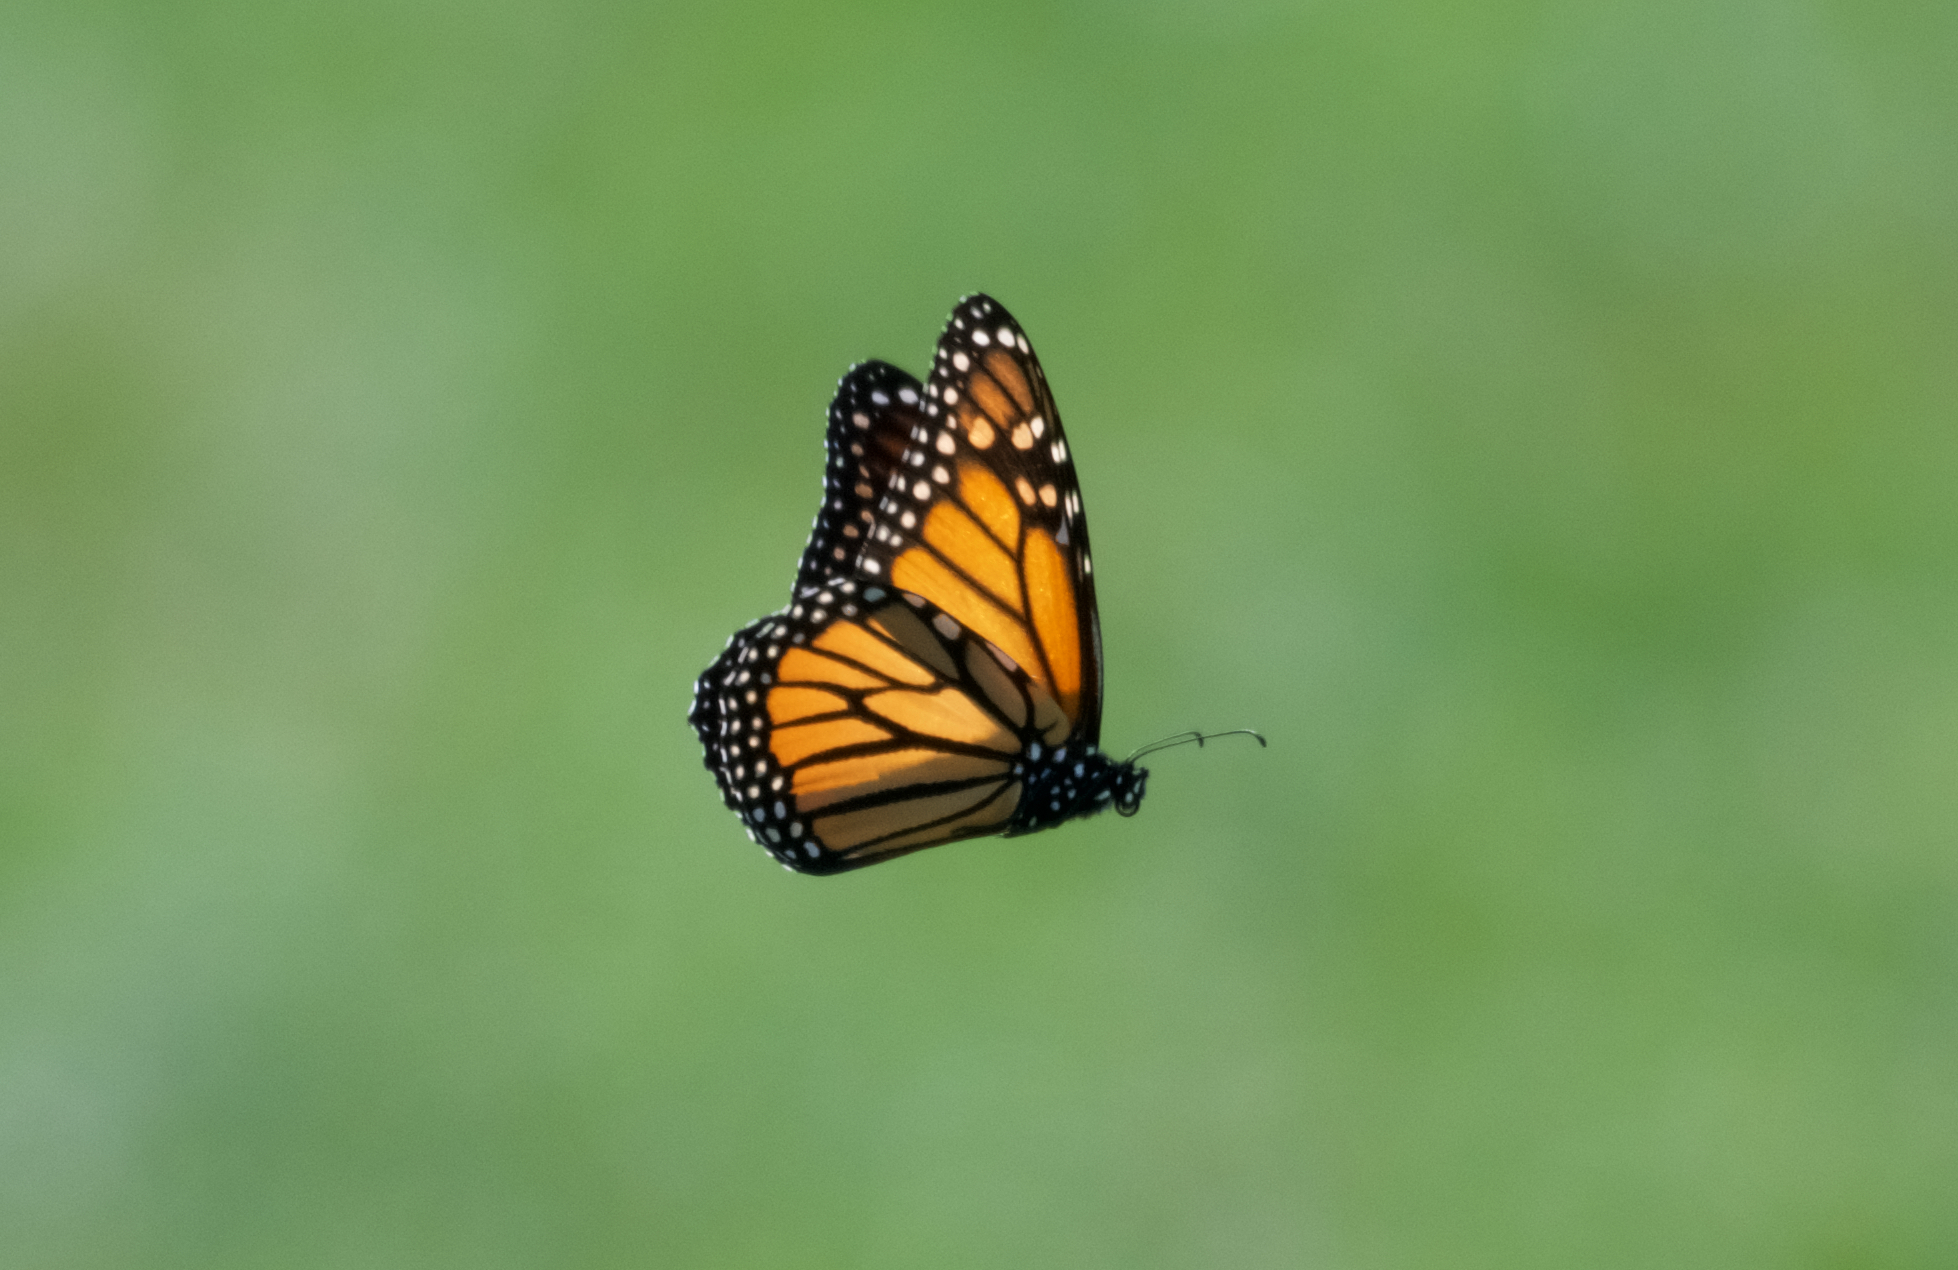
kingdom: Animalia
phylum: Arthropoda
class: Insecta
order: Lepidoptera
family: Nymphalidae
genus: Danaus
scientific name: Danaus plexippus
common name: Monarch
